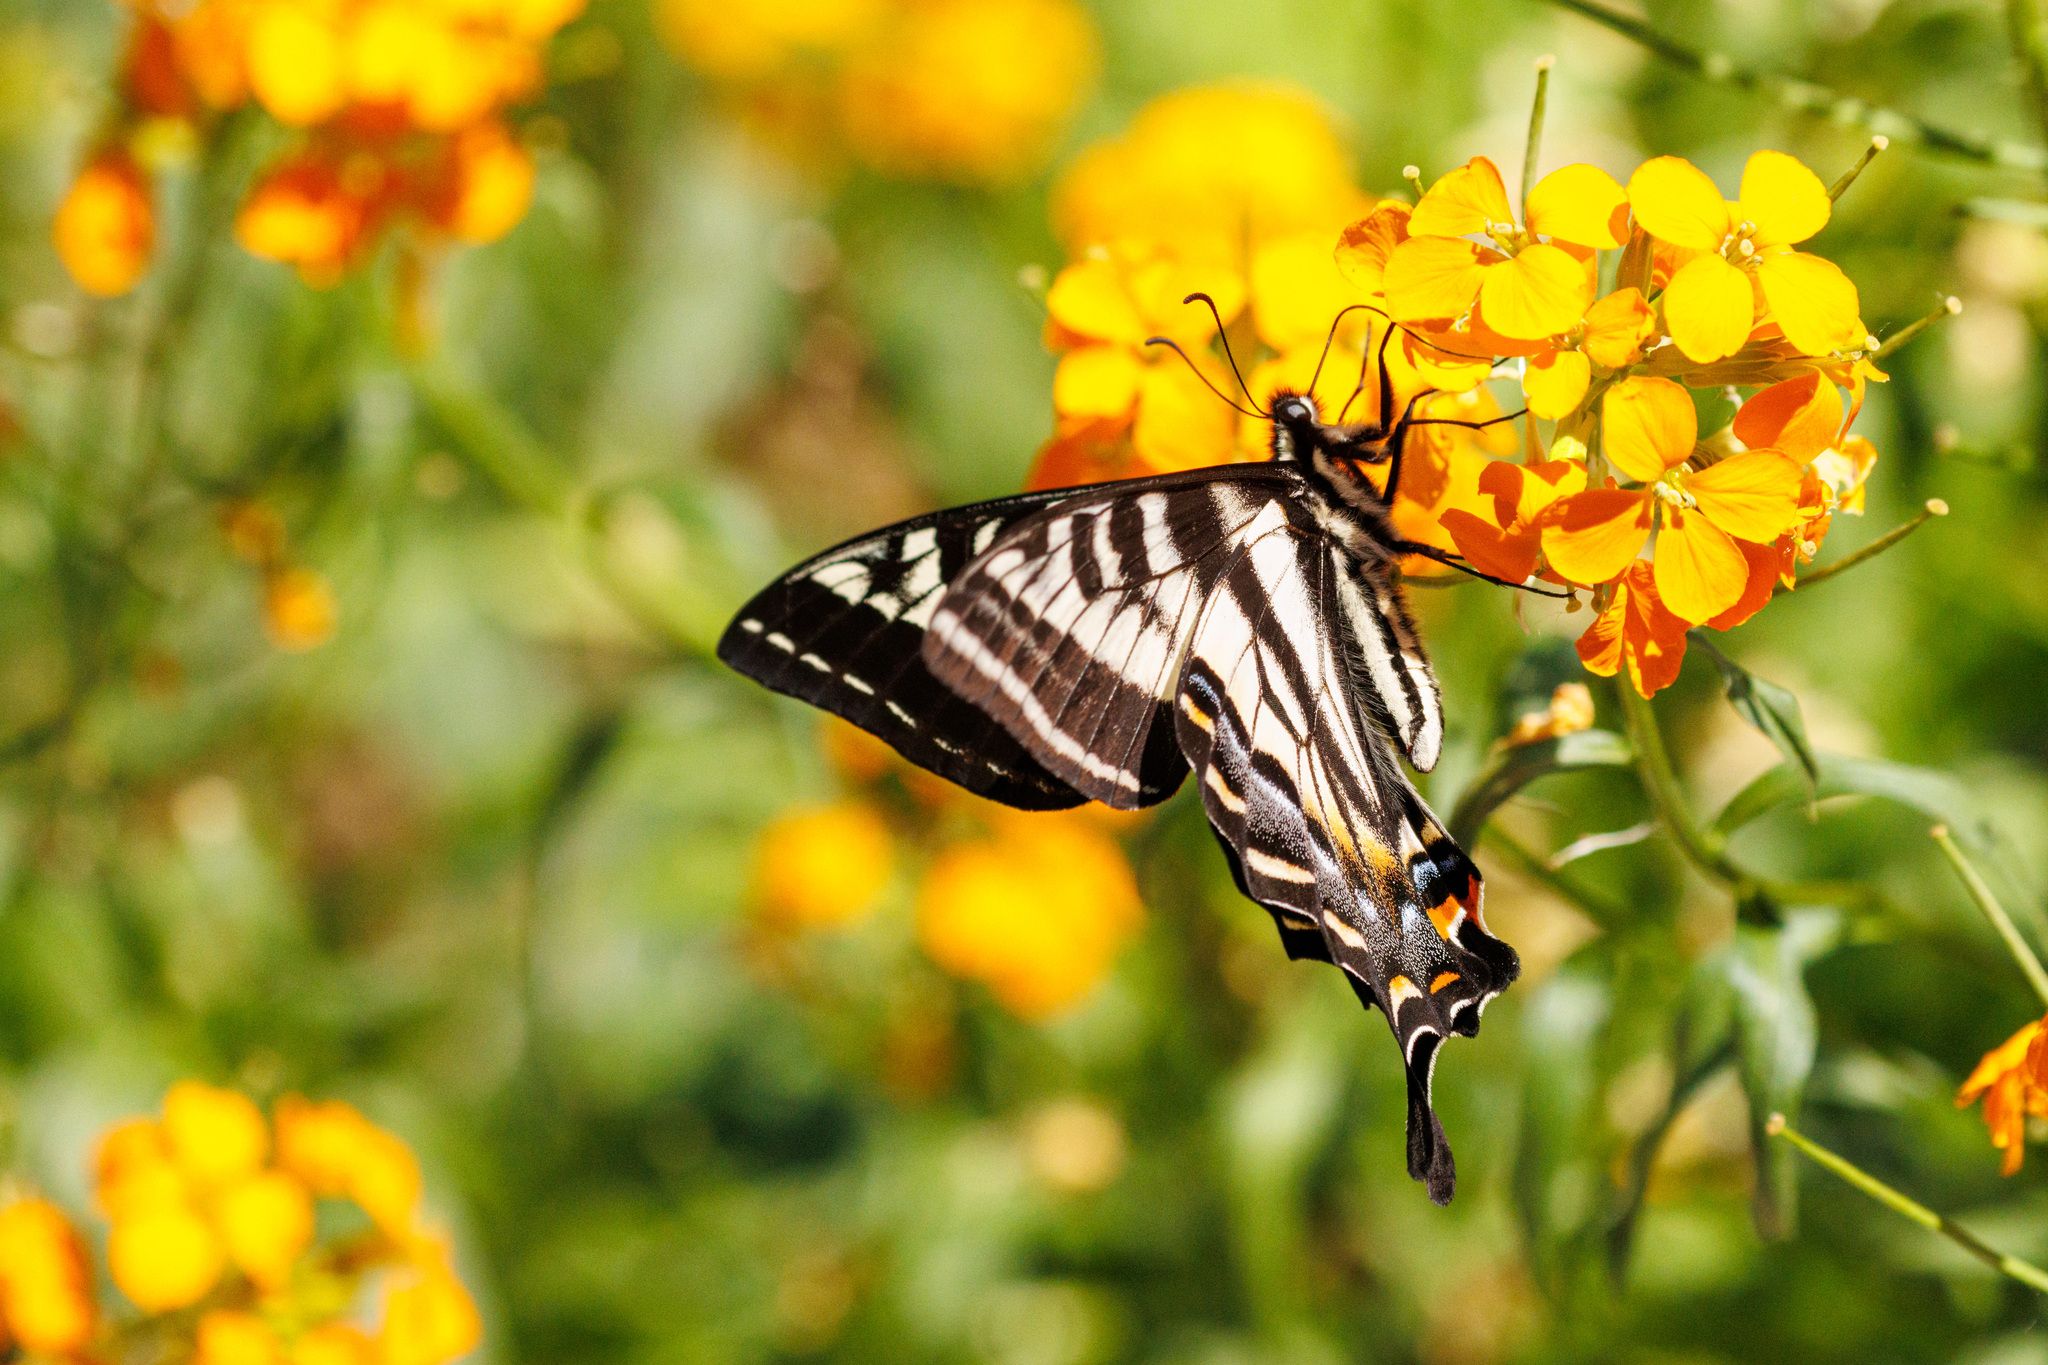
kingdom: Animalia
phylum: Arthropoda
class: Insecta
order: Lepidoptera
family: Papilionidae
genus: Papilio
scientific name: Papilio eurymedon
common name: Pale tiger swallowtail
